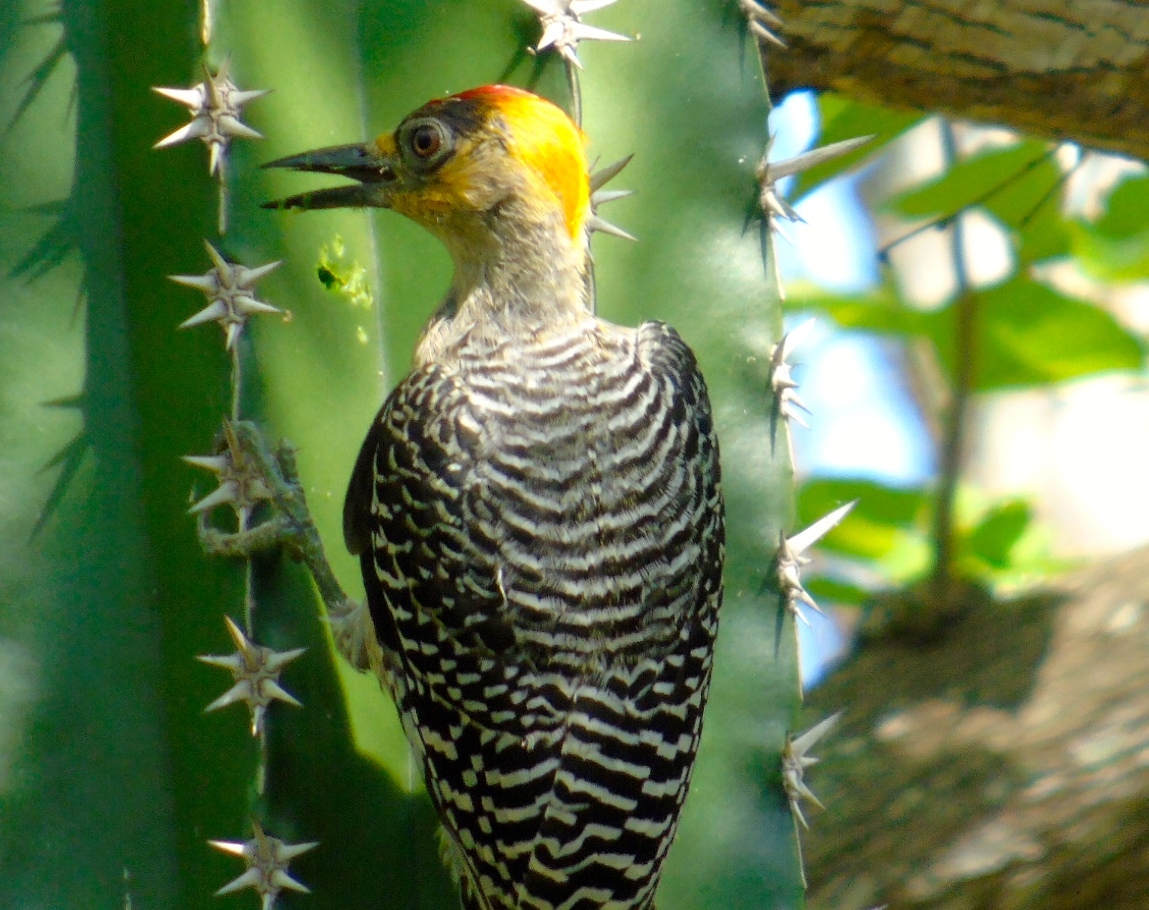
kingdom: Animalia
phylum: Chordata
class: Aves
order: Piciformes
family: Picidae
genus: Melanerpes
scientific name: Melanerpes chrysogenys
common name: Golden-cheeked woodpecker
